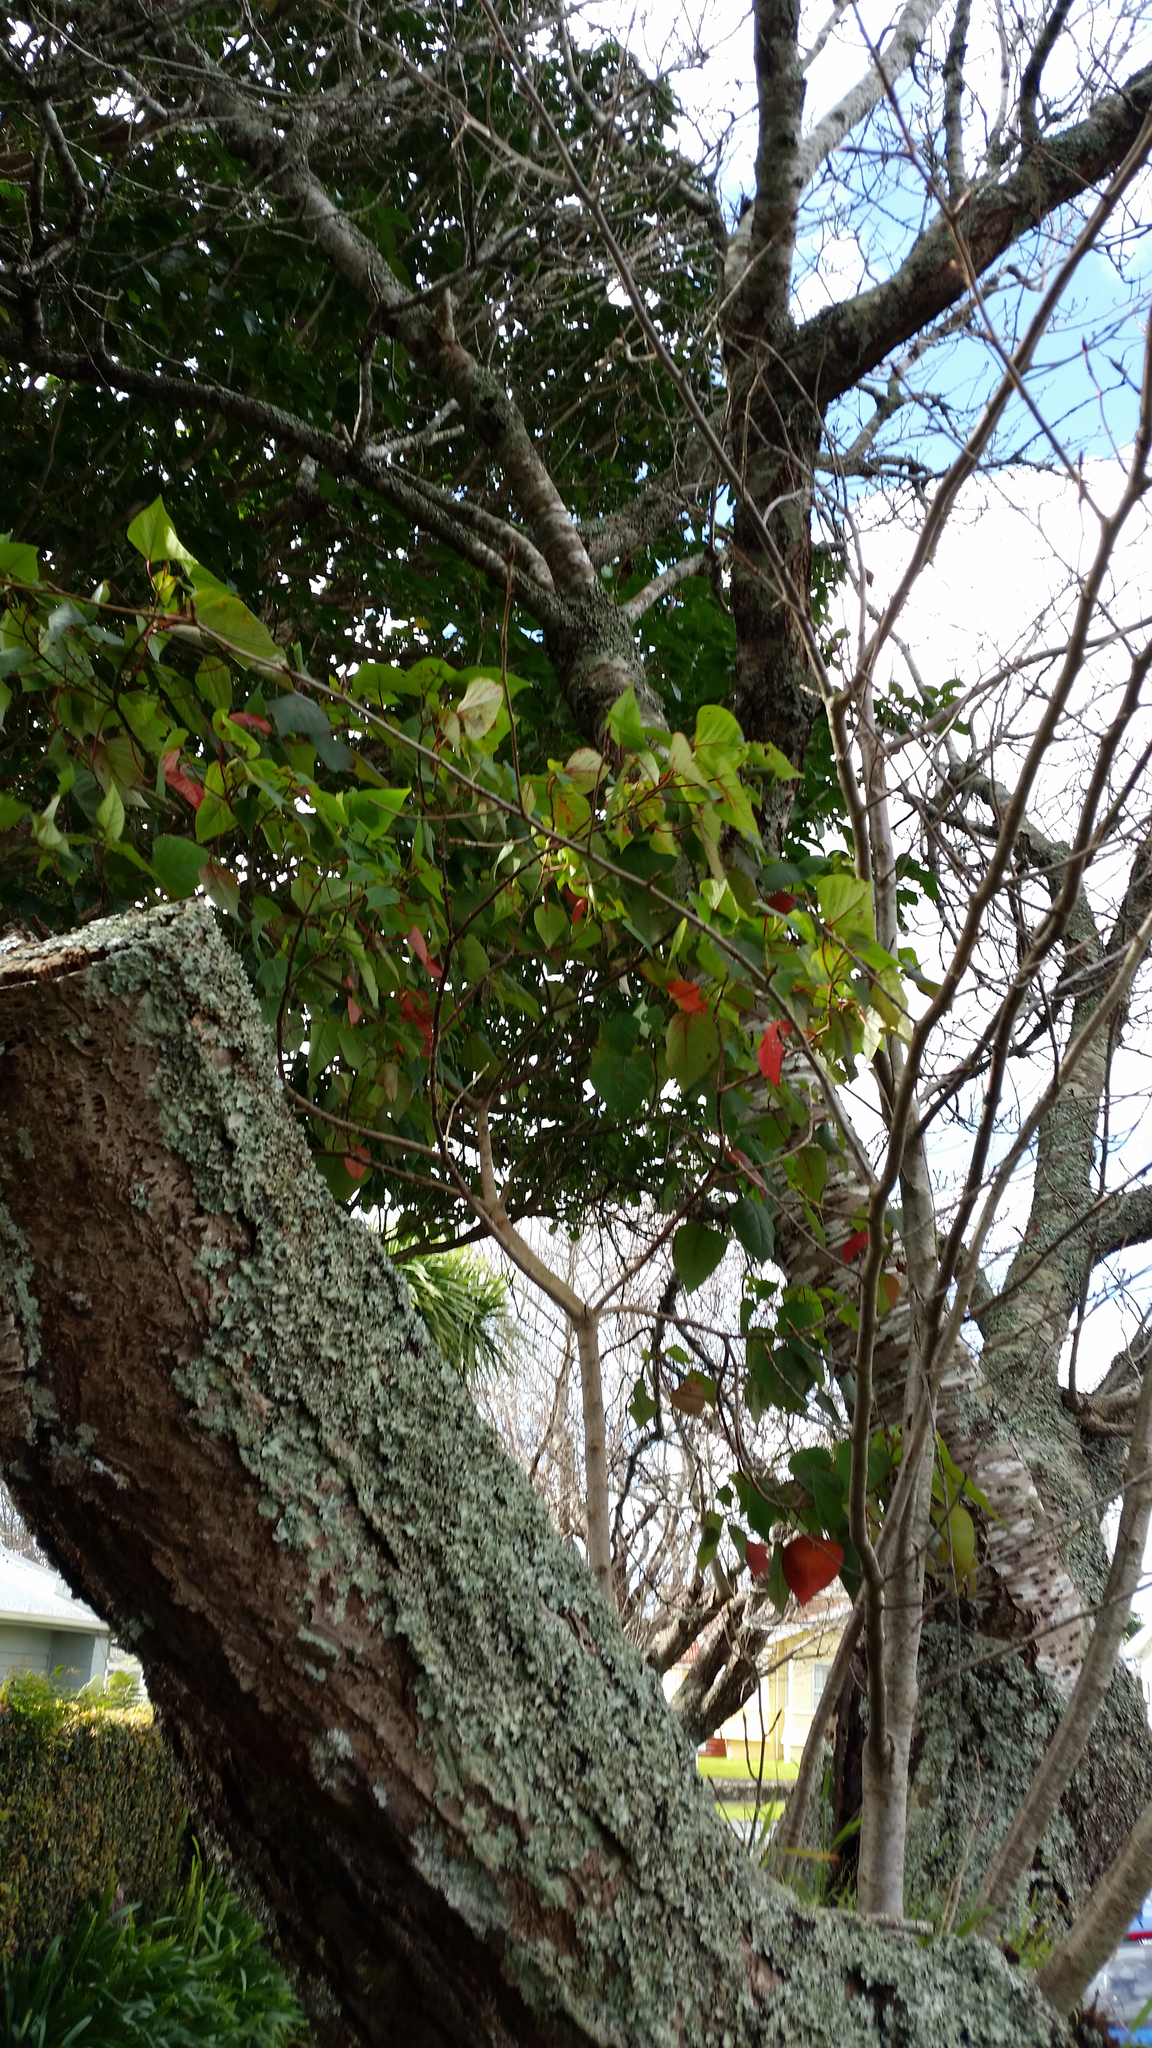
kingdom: Plantae
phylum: Tracheophyta
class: Magnoliopsida
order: Malpighiales
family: Euphorbiaceae
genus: Homalanthus
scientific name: Homalanthus populifolius
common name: Queensland poplar
